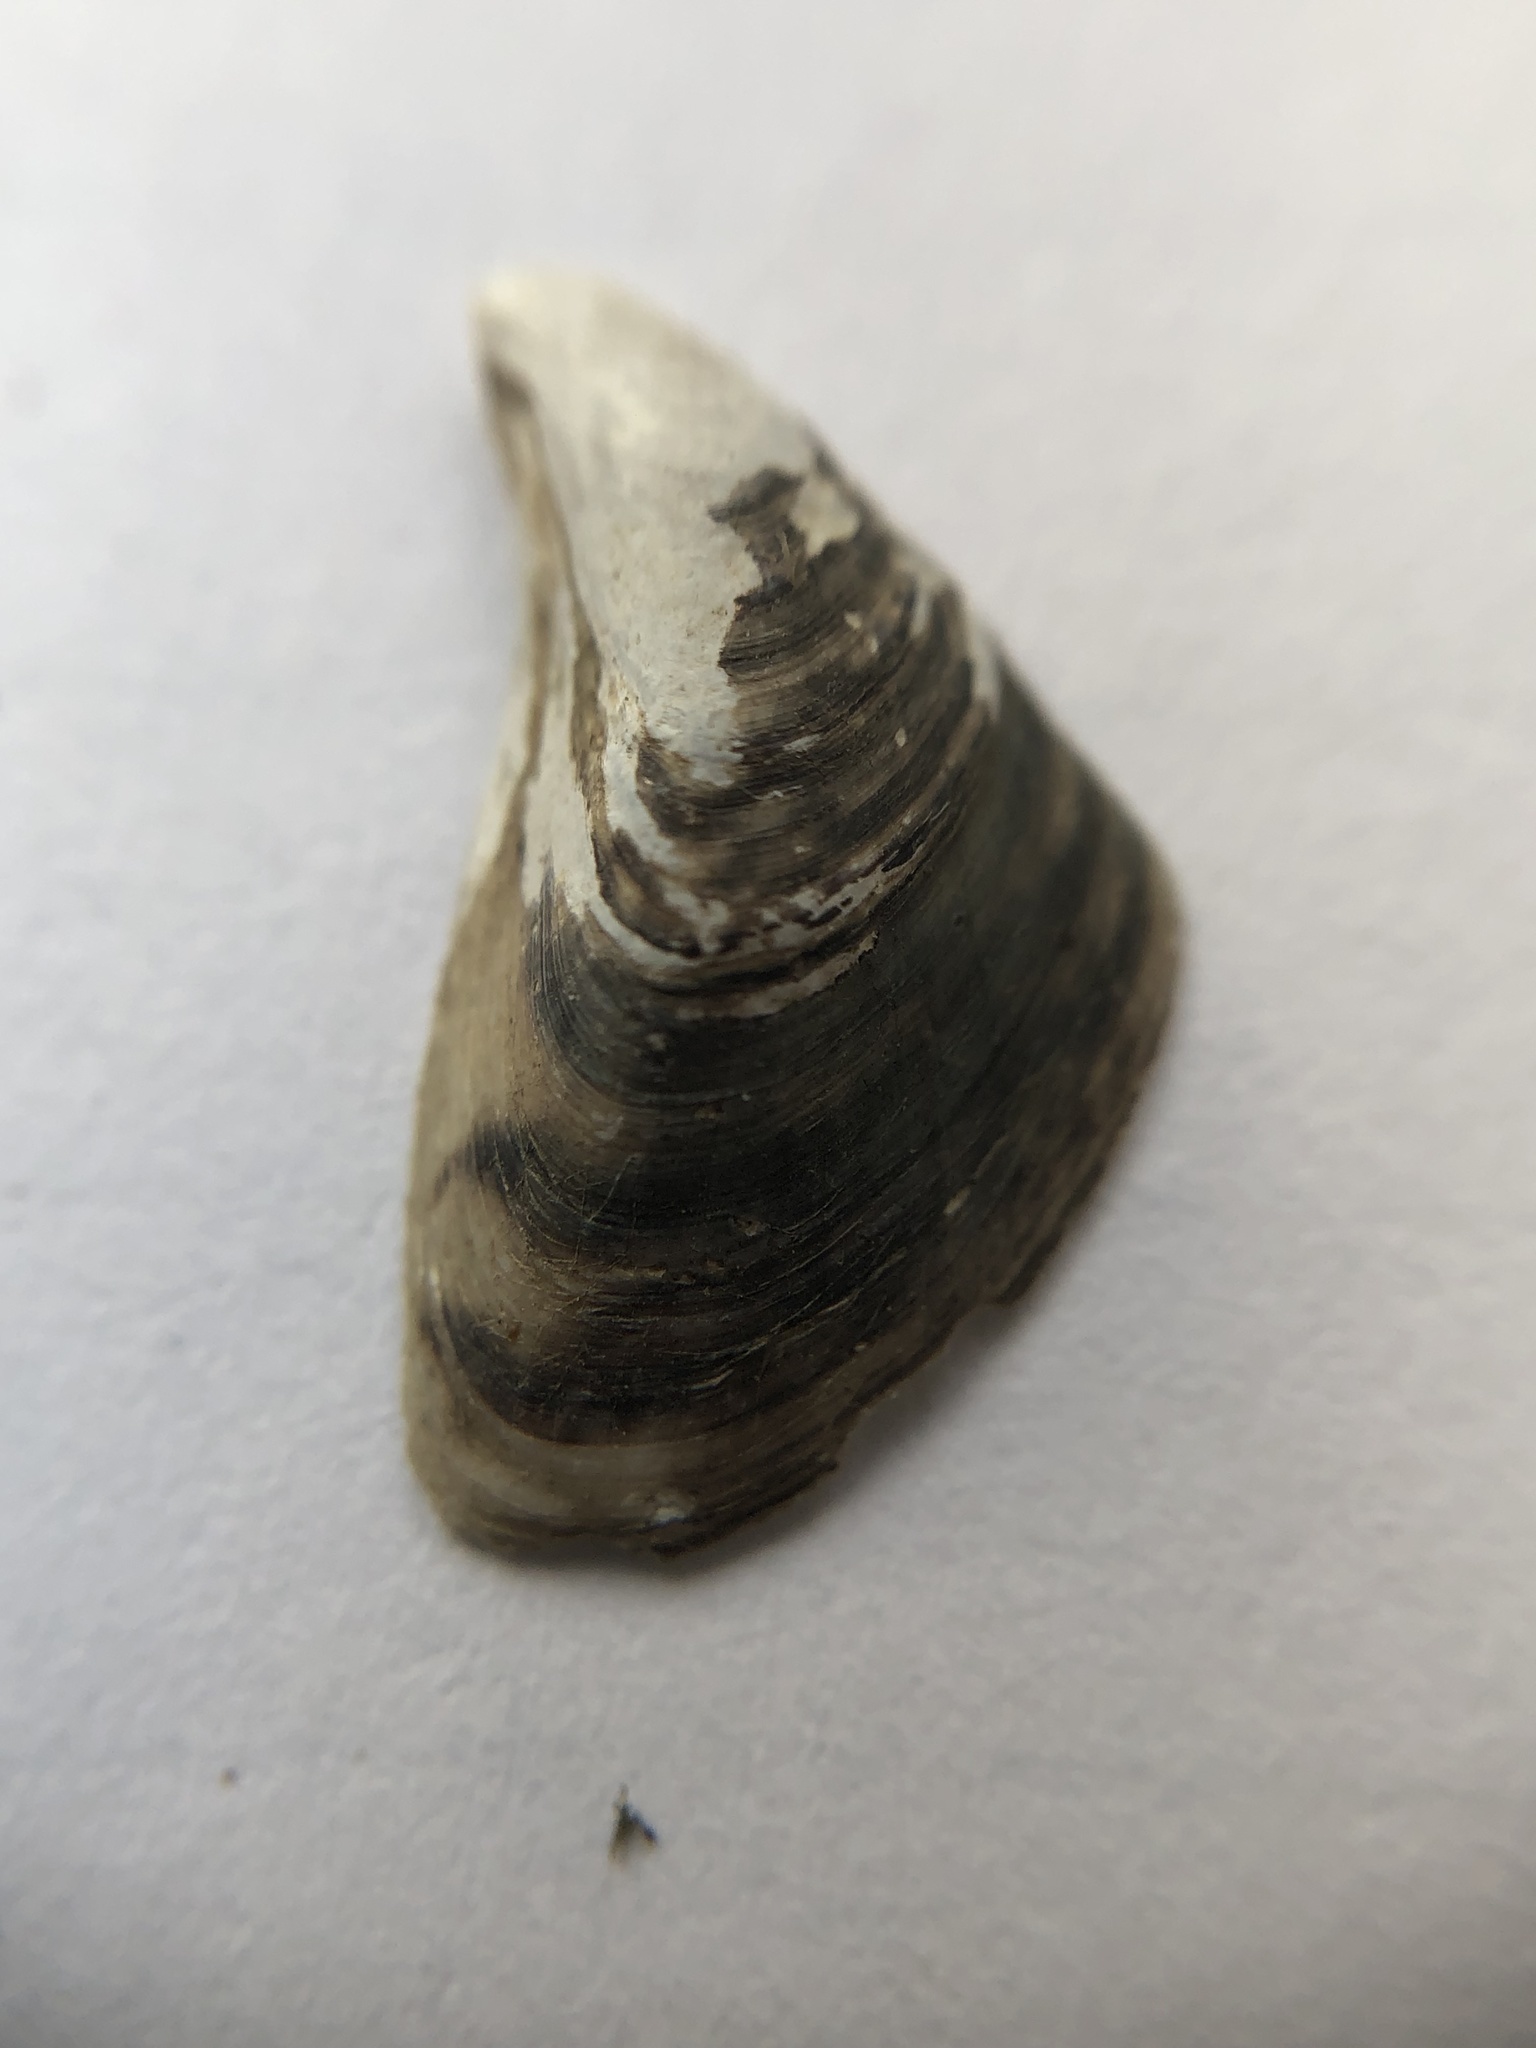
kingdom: Animalia
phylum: Mollusca
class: Bivalvia
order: Myida
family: Dreissenidae
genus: Dreissena
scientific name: Dreissena bugensis
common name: Quagga mussel
